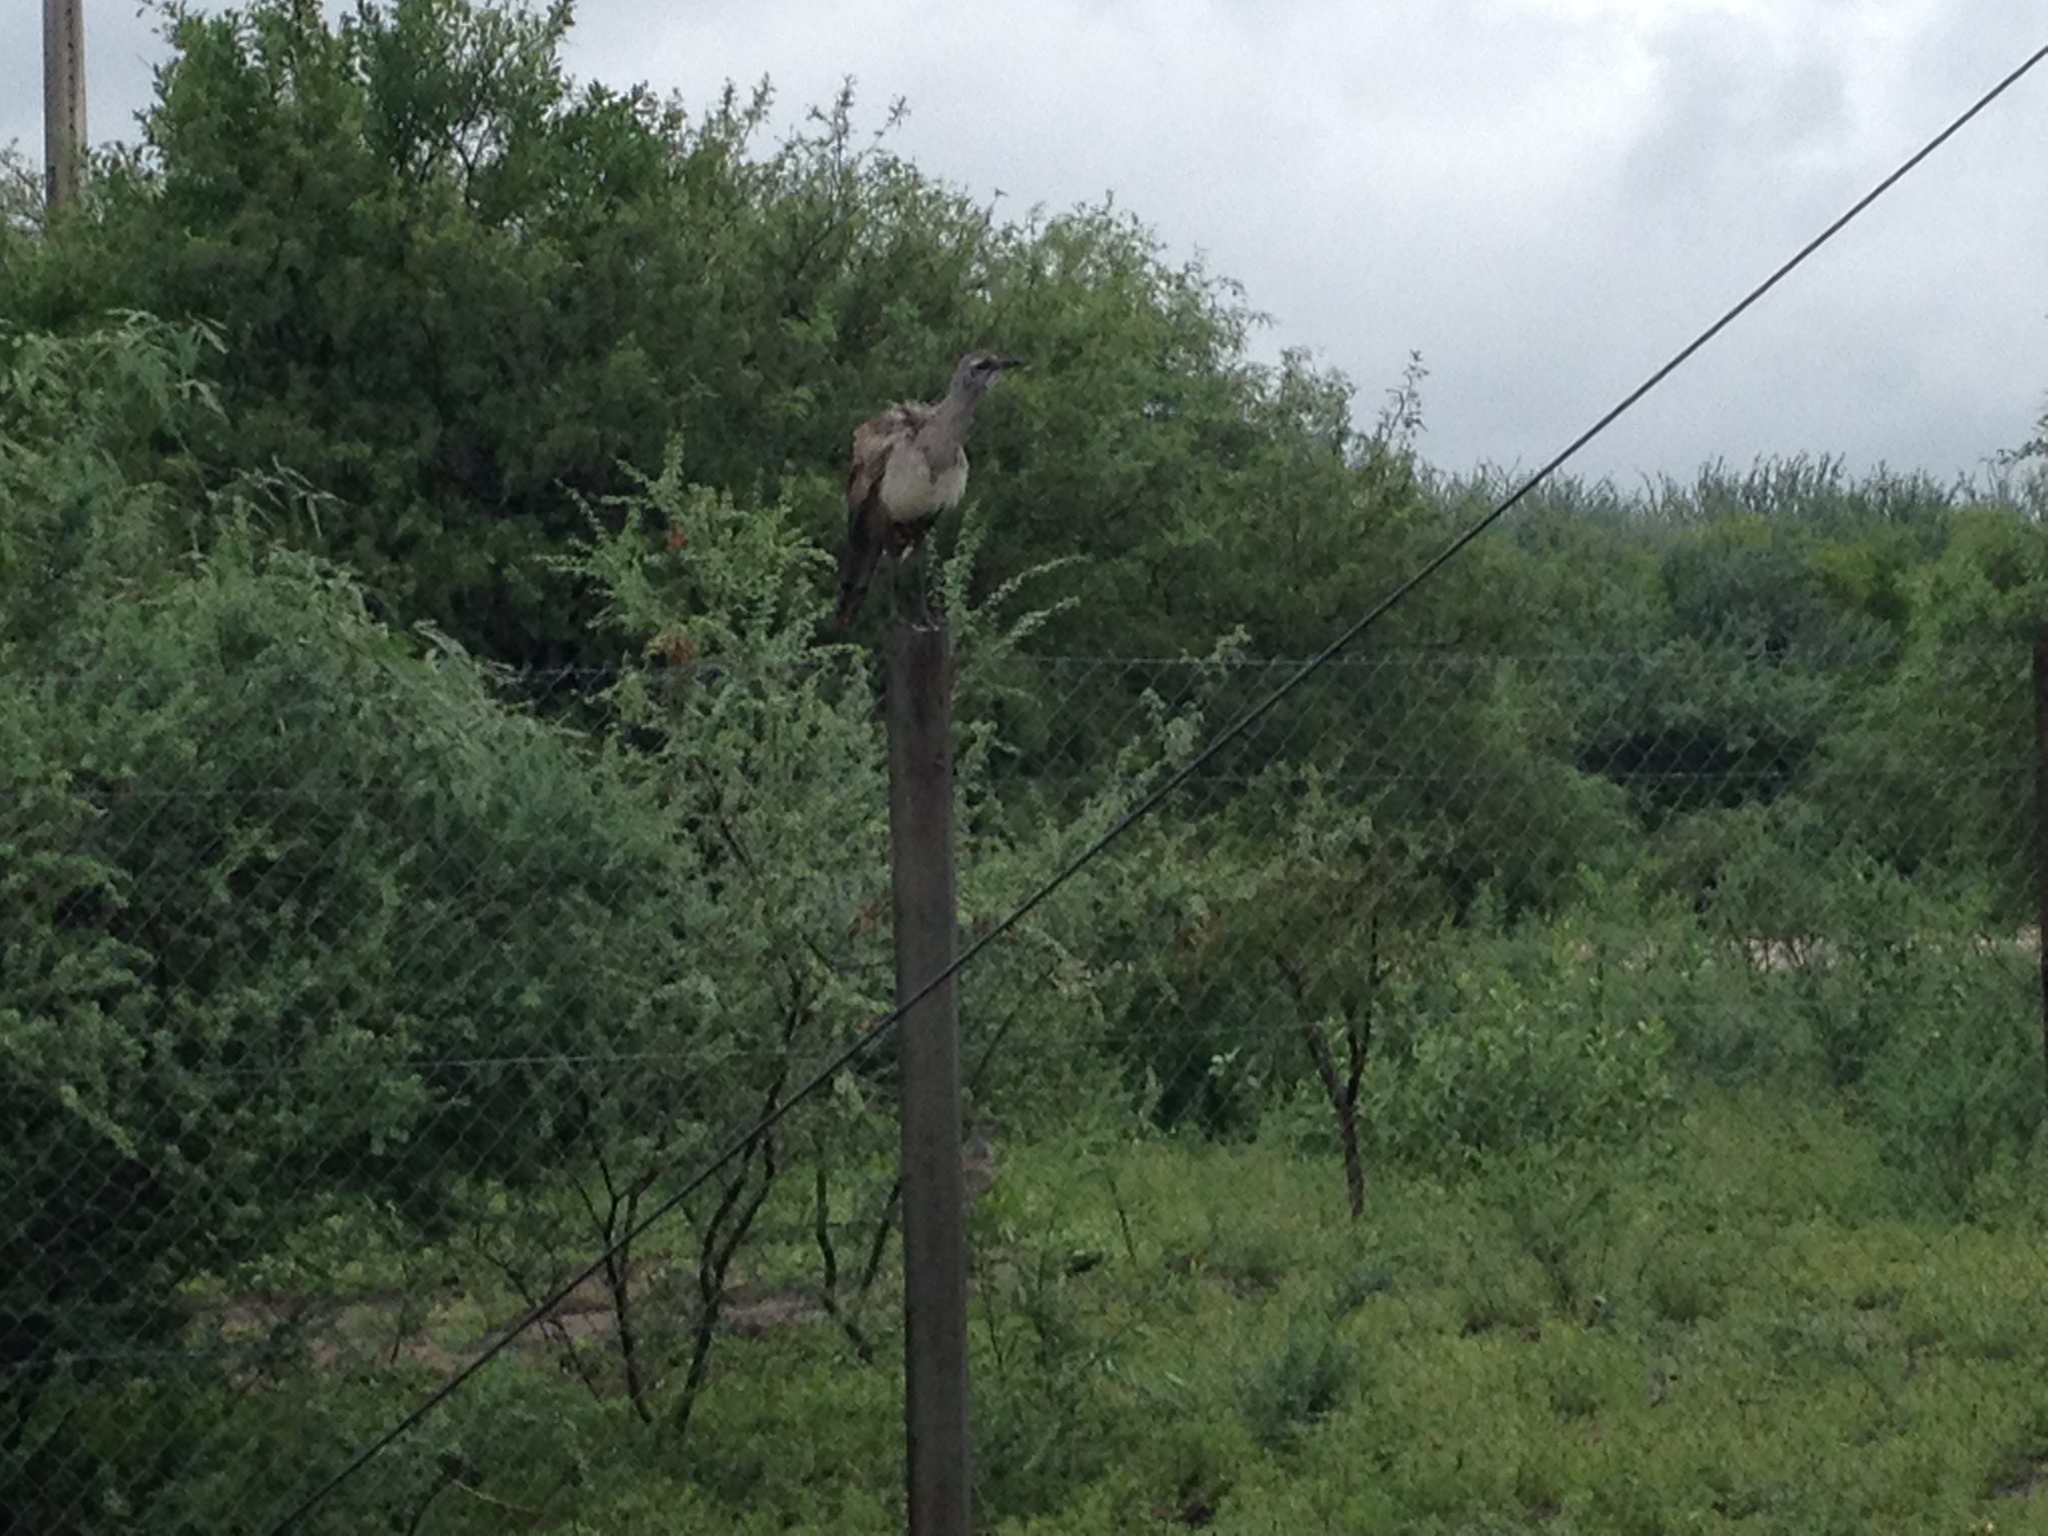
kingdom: Animalia
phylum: Chordata
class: Aves
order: Cariamiformes
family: Cariamidae
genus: Chunga
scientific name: Chunga burmeisteri
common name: Black-legged seriema
